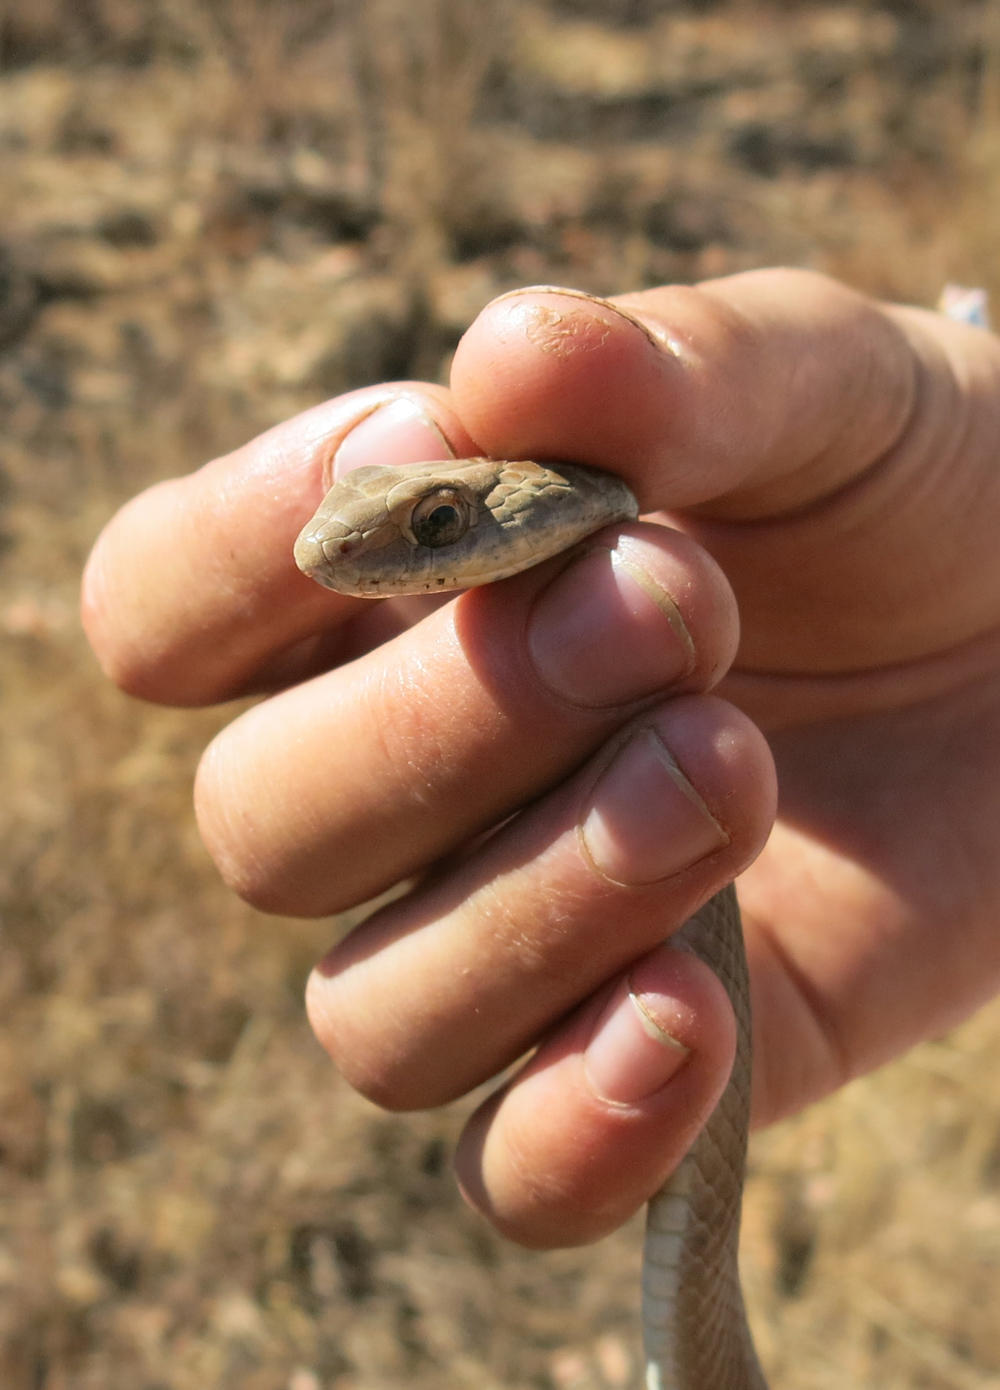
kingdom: Animalia
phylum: Chordata
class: Squamata
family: Psammophiidae
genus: Psammophis
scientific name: Psammophis brevirostris
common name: Short-snouted grass snake
